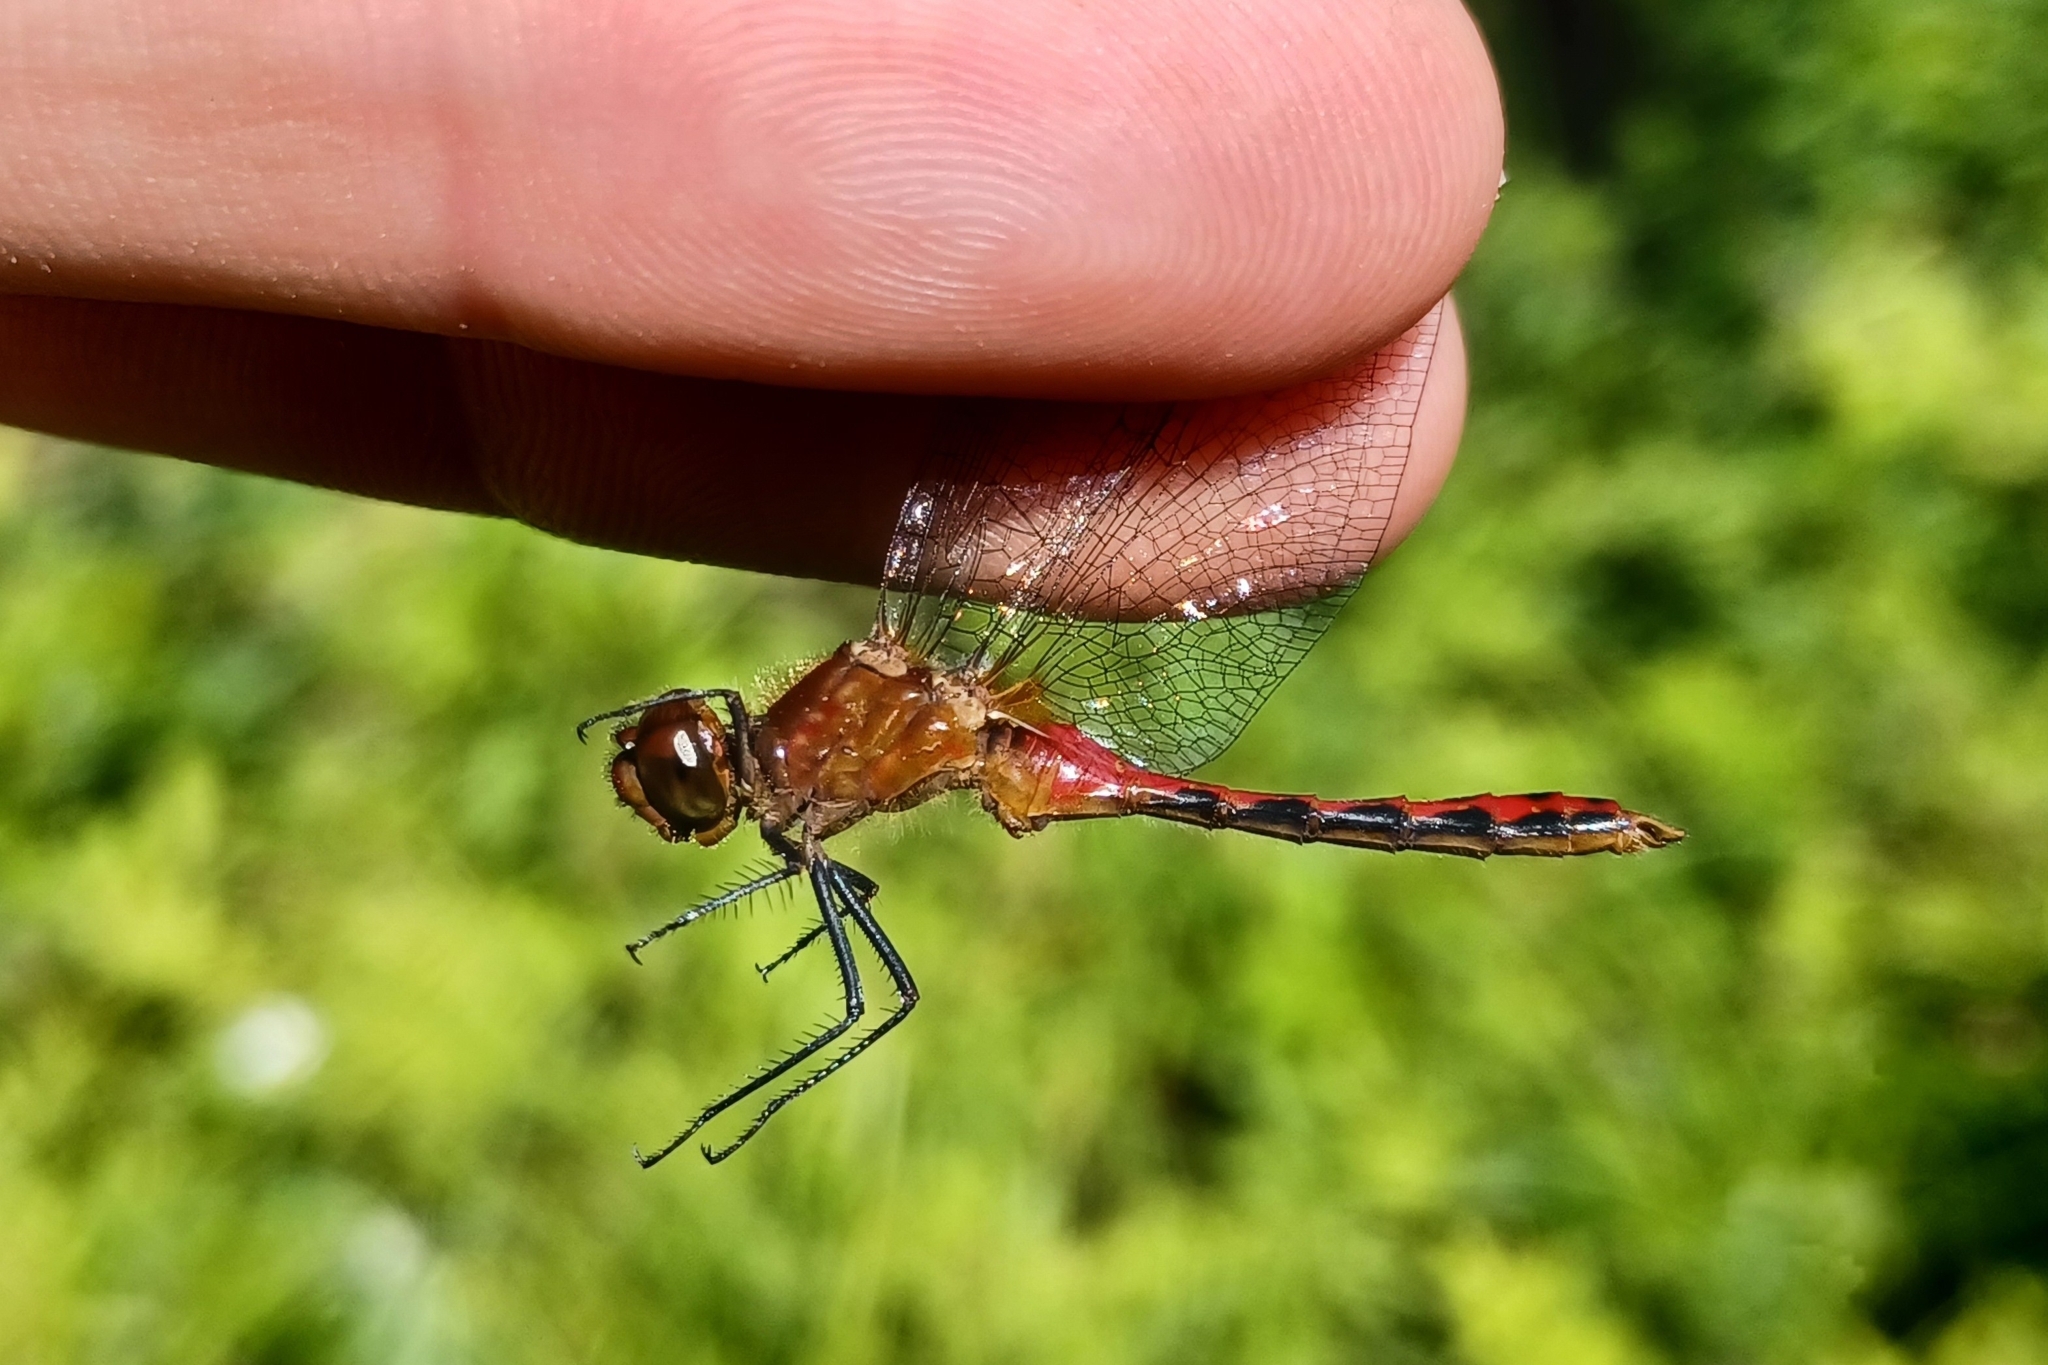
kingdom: Animalia
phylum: Arthropoda
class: Insecta
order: Odonata
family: Libellulidae
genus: Sympetrum
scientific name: Sympetrum internum
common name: Cherry-faced meadowhawk
